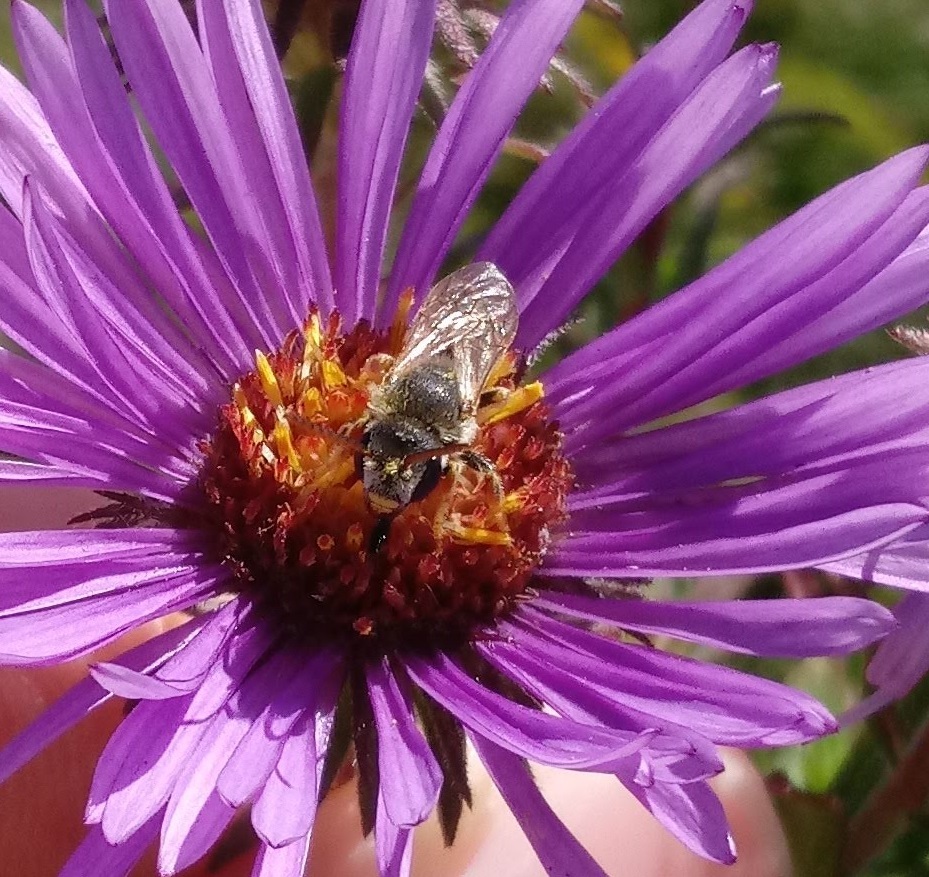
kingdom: Animalia
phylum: Arthropoda
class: Insecta
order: Hymenoptera
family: Halictidae
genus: Halictus
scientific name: Halictus ligatus
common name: Ligated furrow bee
